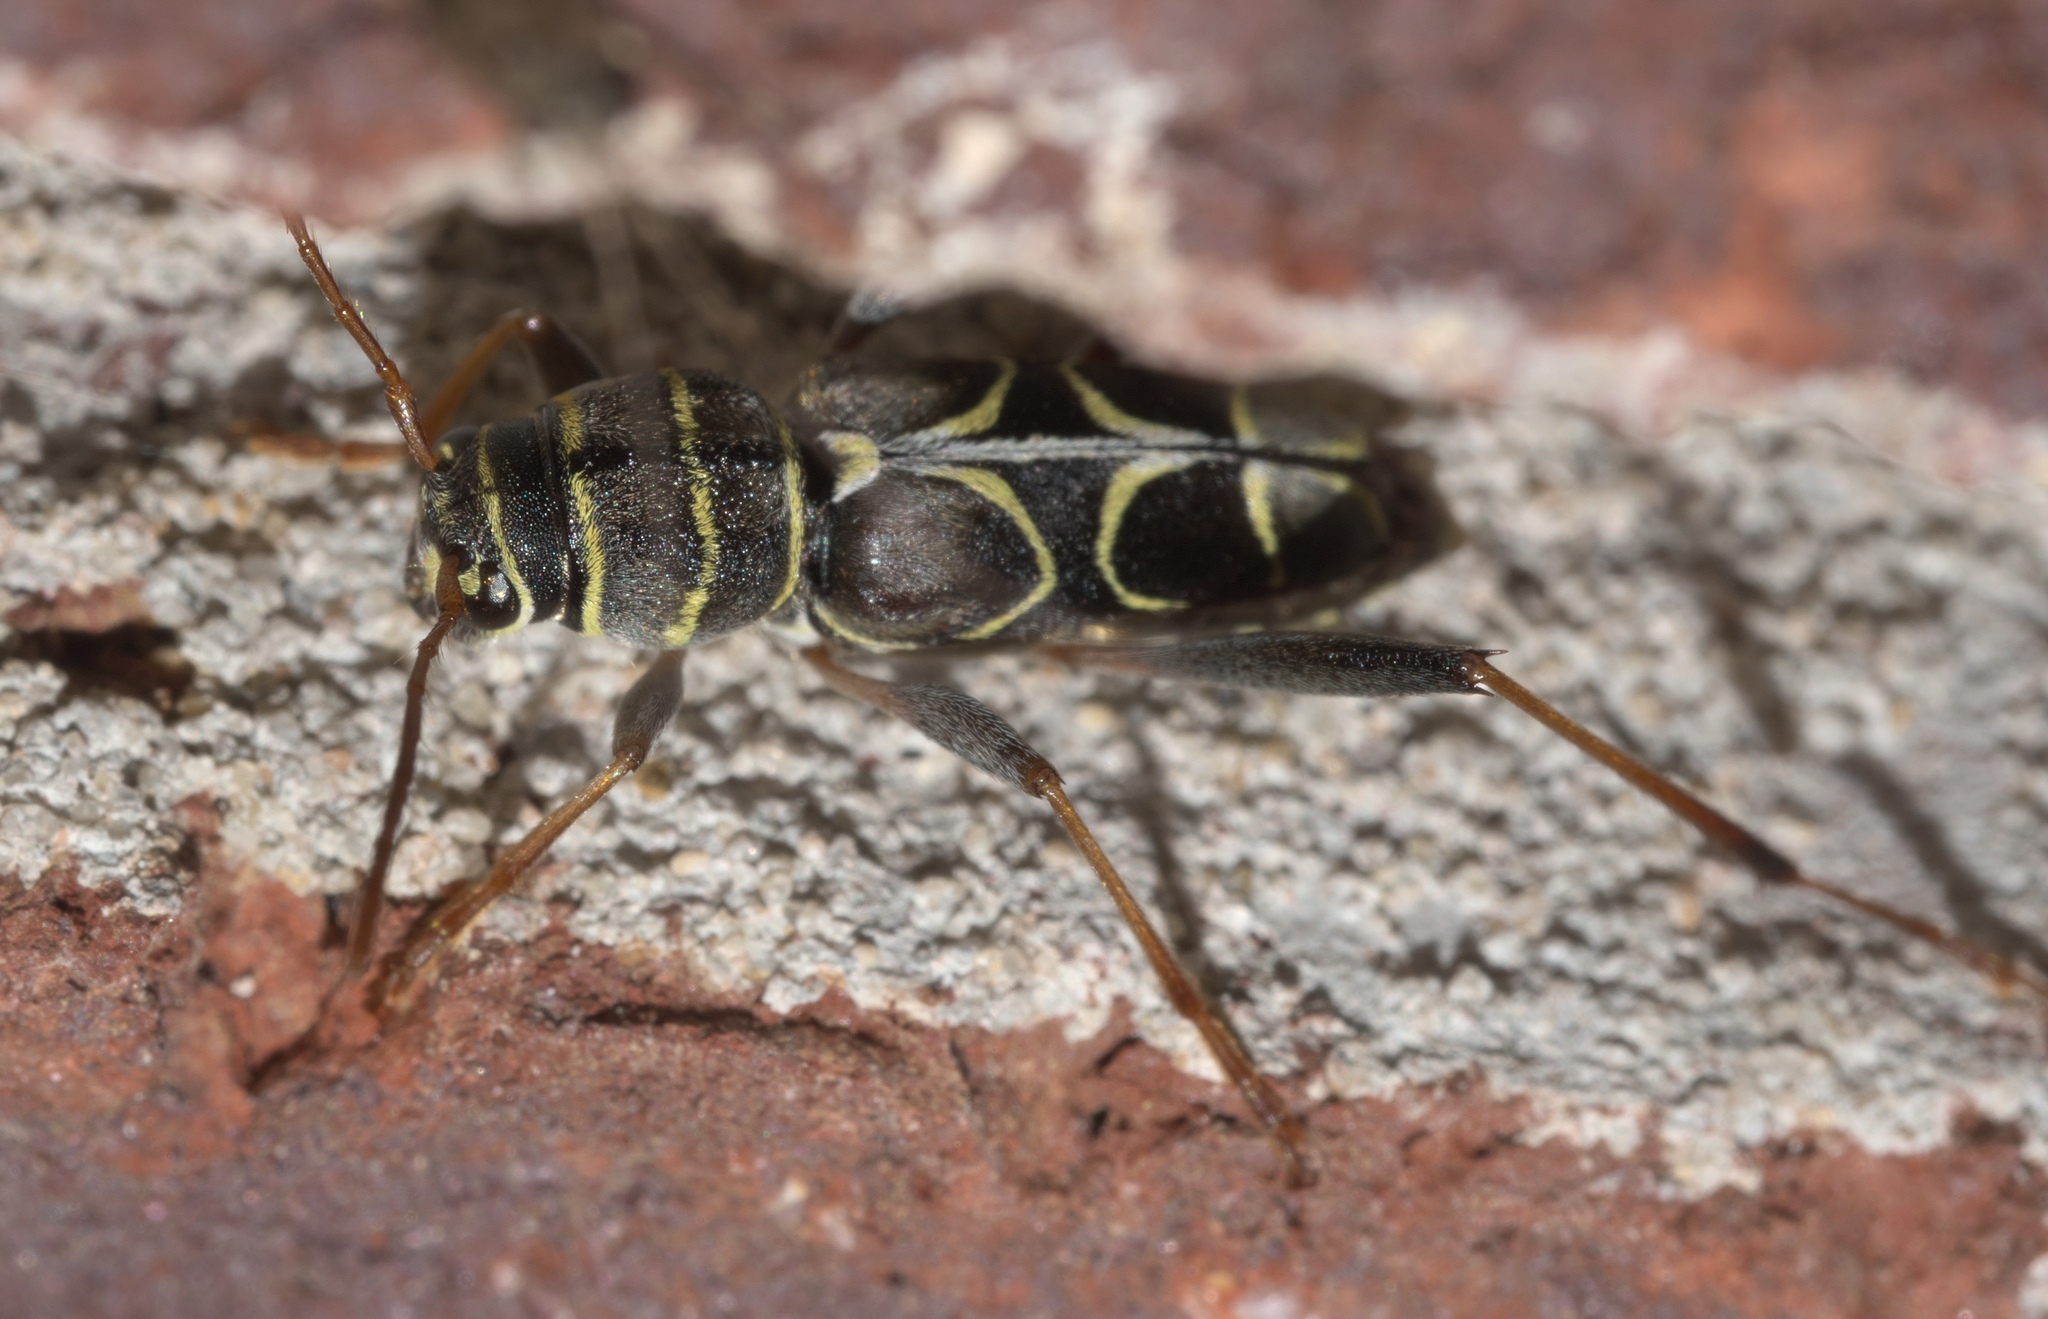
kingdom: Animalia
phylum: Arthropoda
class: Insecta
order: Coleoptera
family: Cerambycidae
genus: Neoclytus
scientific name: Neoclytus scutellaris
